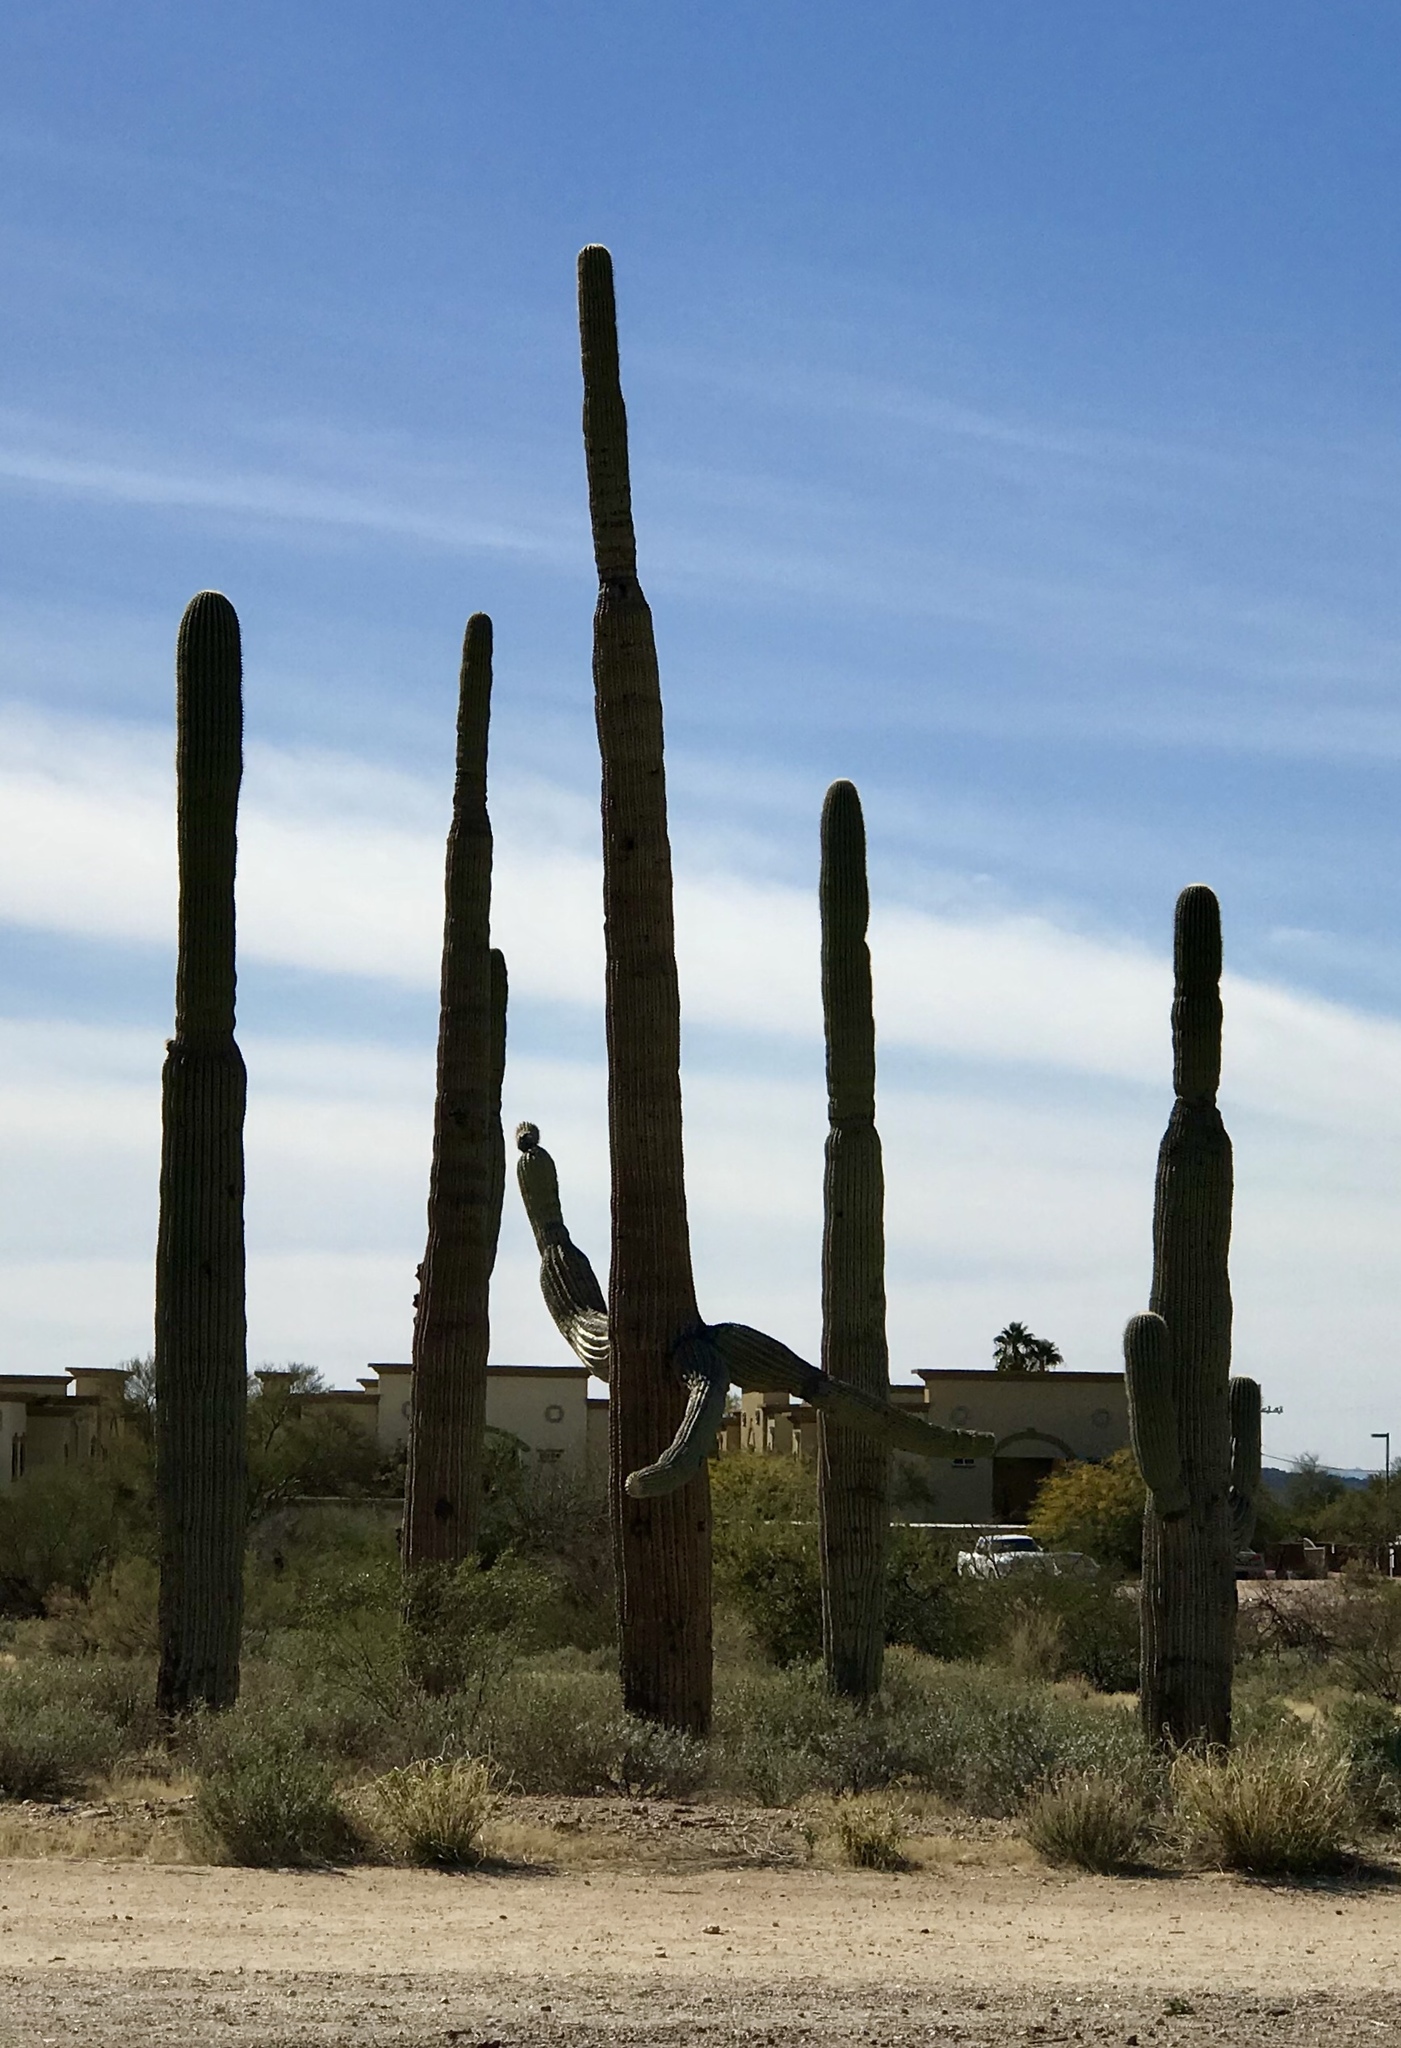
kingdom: Plantae
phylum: Tracheophyta
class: Magnoliopsida
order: Caryophyllales
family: Cactaceae
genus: Carnegiea
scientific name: Carnegiea gigantea
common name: Saguaro
